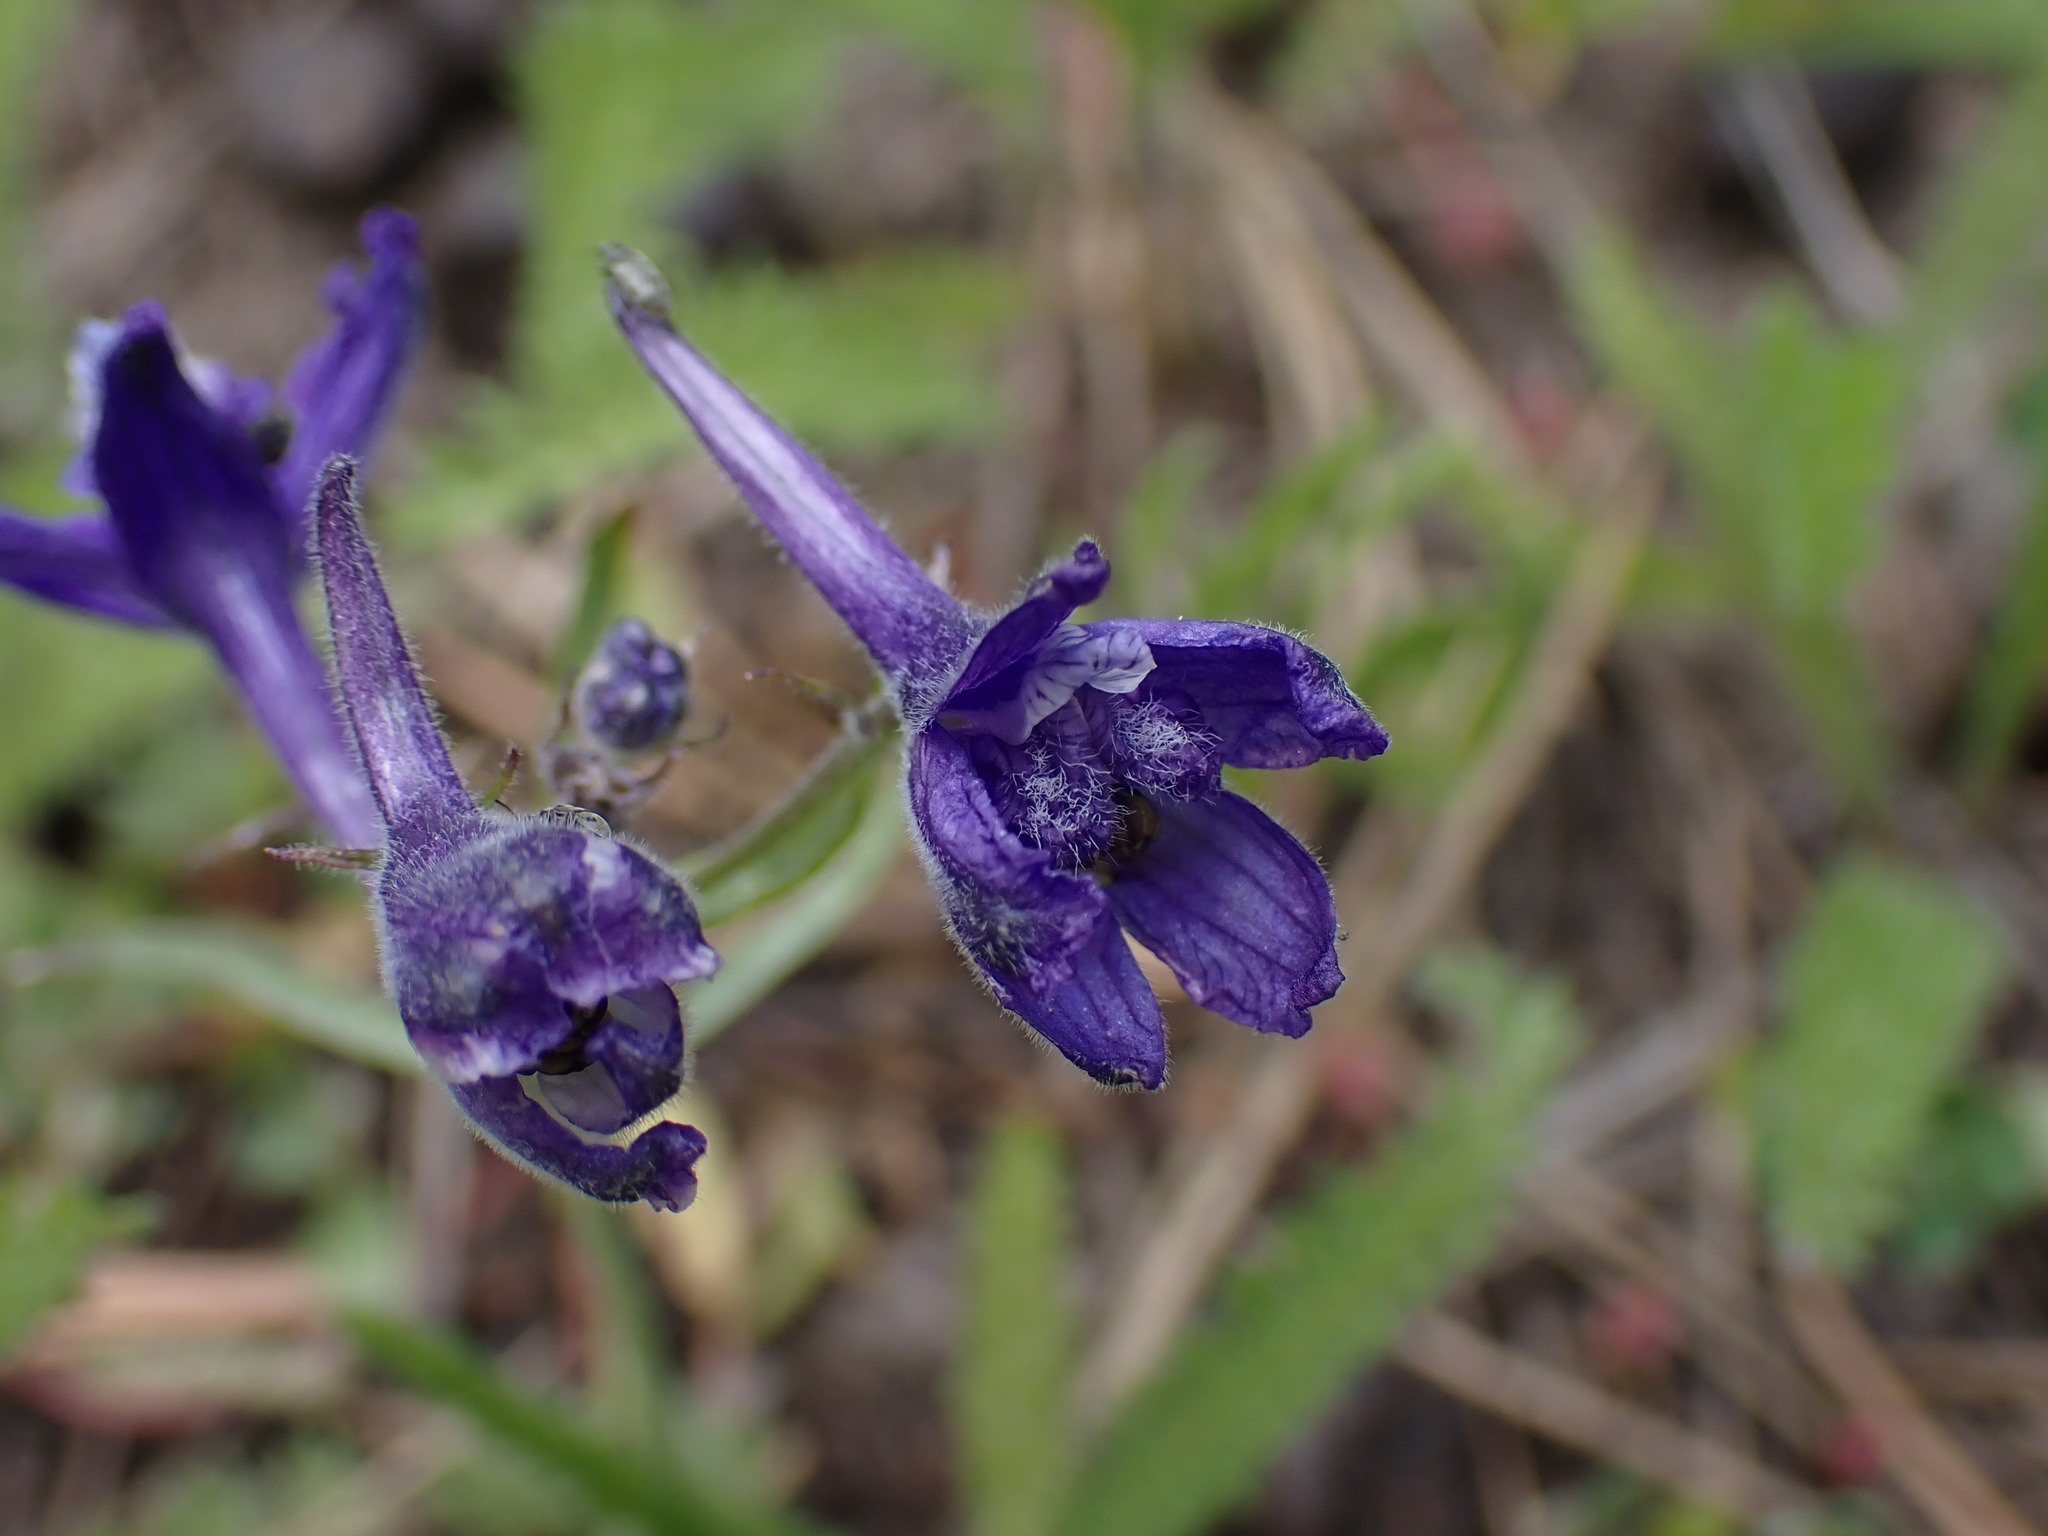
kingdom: Plantae
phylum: Tracheophyta
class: Magnoliopsida
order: Ranunculales
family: Ranunculaceae
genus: Delphinium
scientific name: Delphinium nuttallianum
